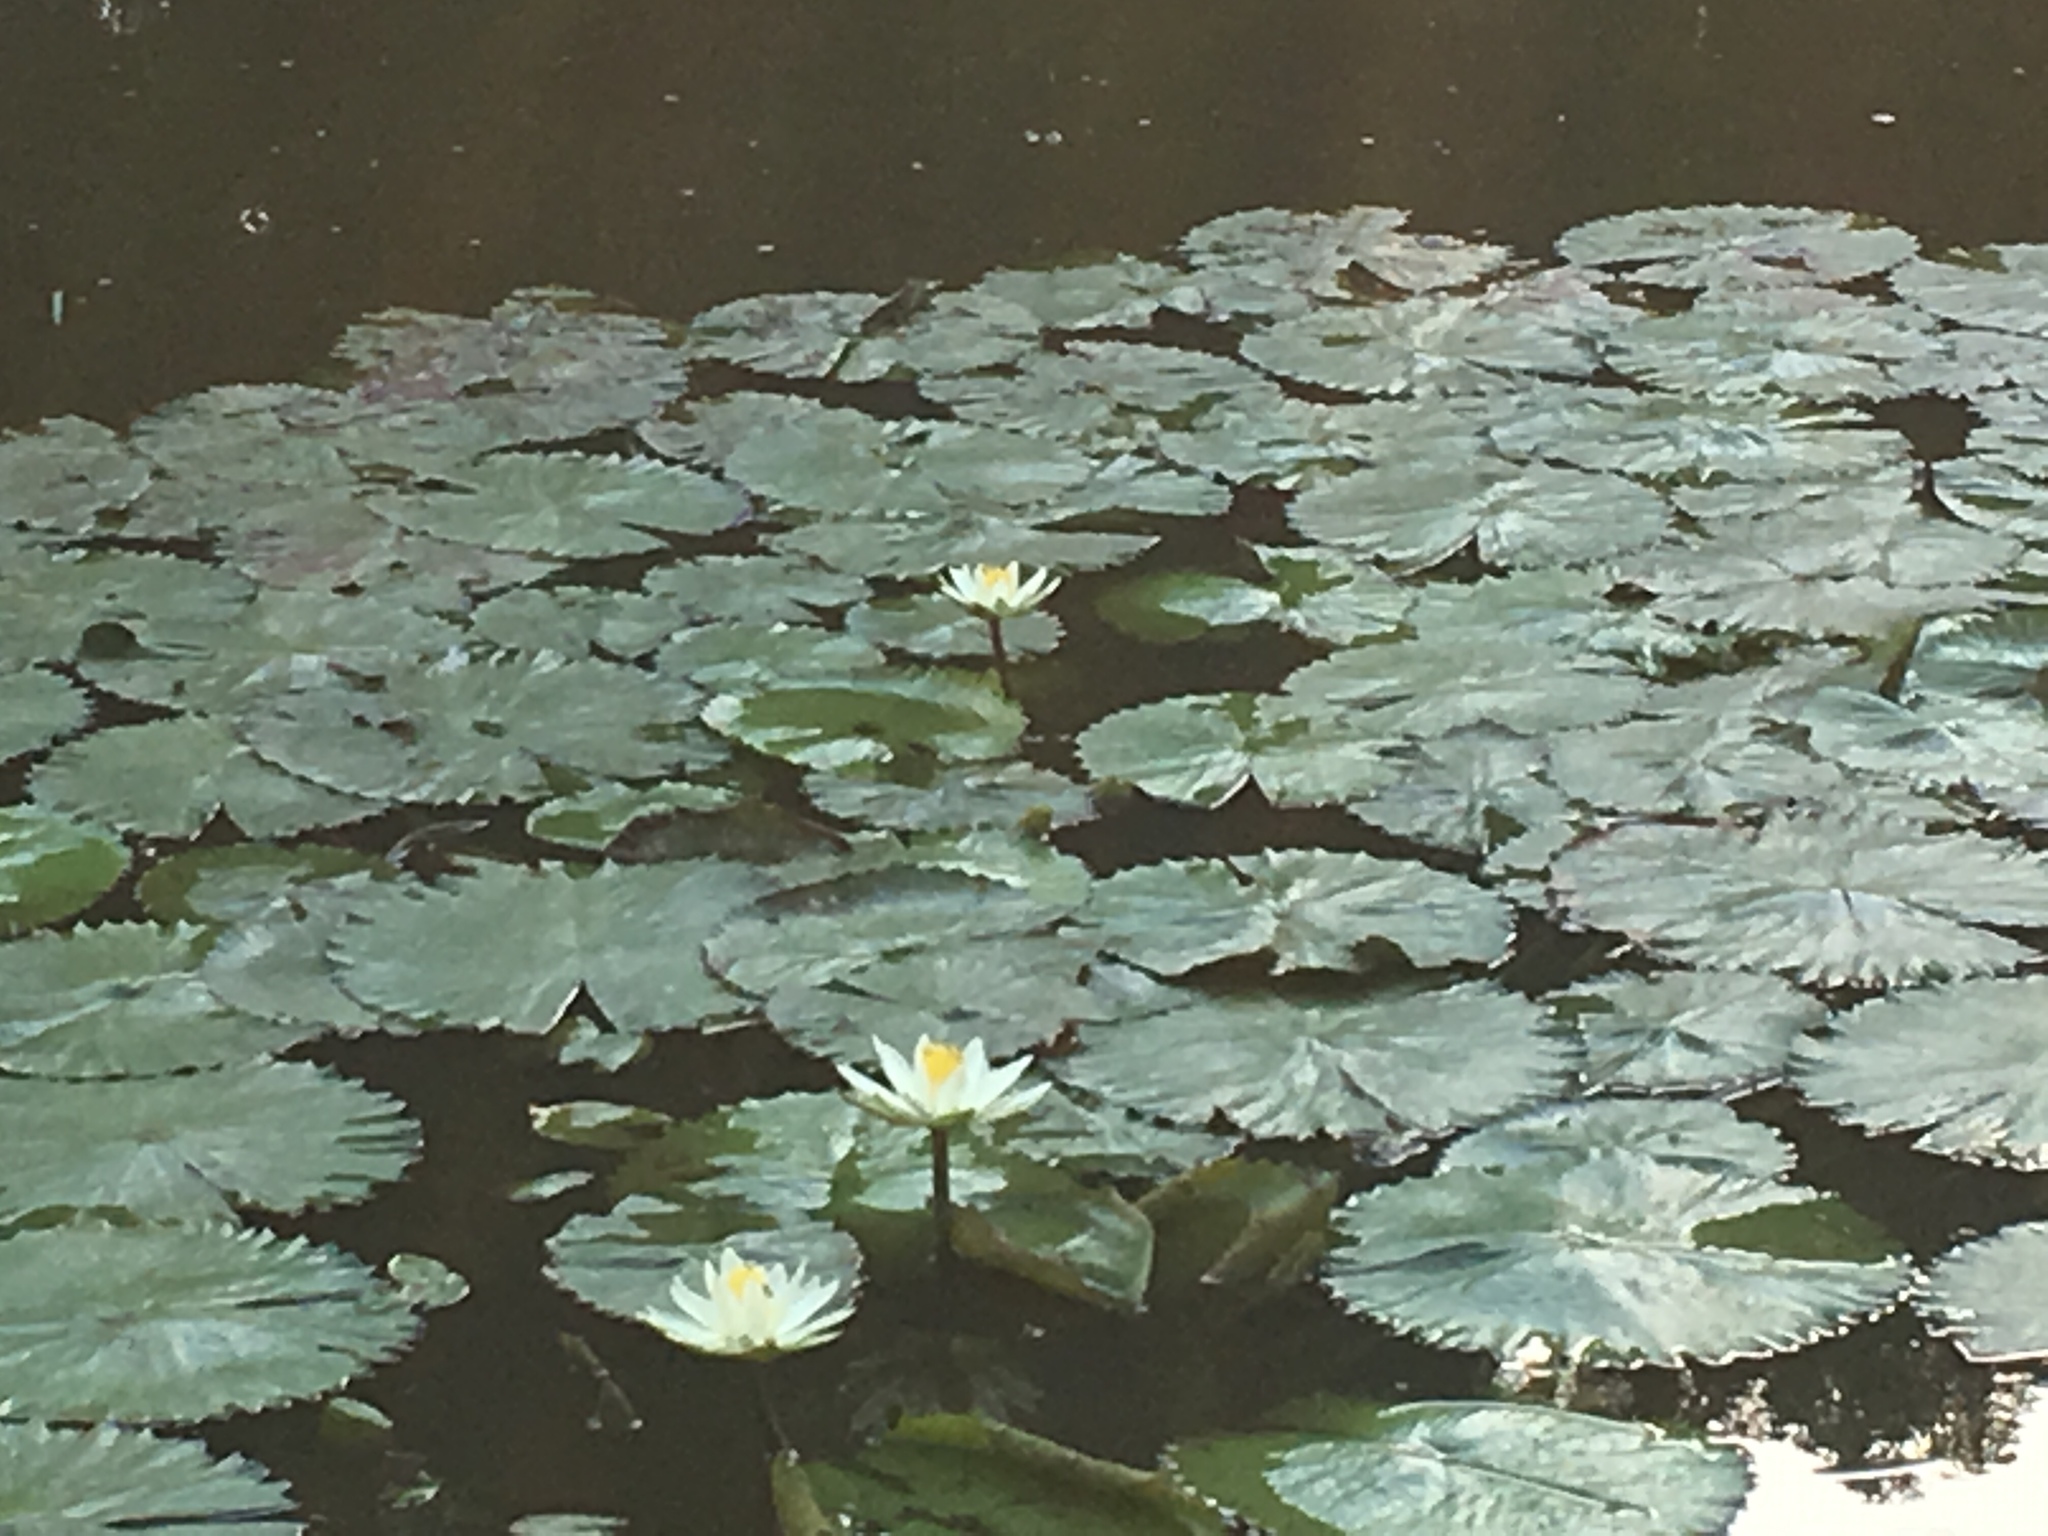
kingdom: Plantae
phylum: Tracheophyta
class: Magnoliopsida
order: Nymphaeales
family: Nymphaeaceae
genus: Nymphaea
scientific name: Nymphaea lotus
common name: White egyptian lotus
